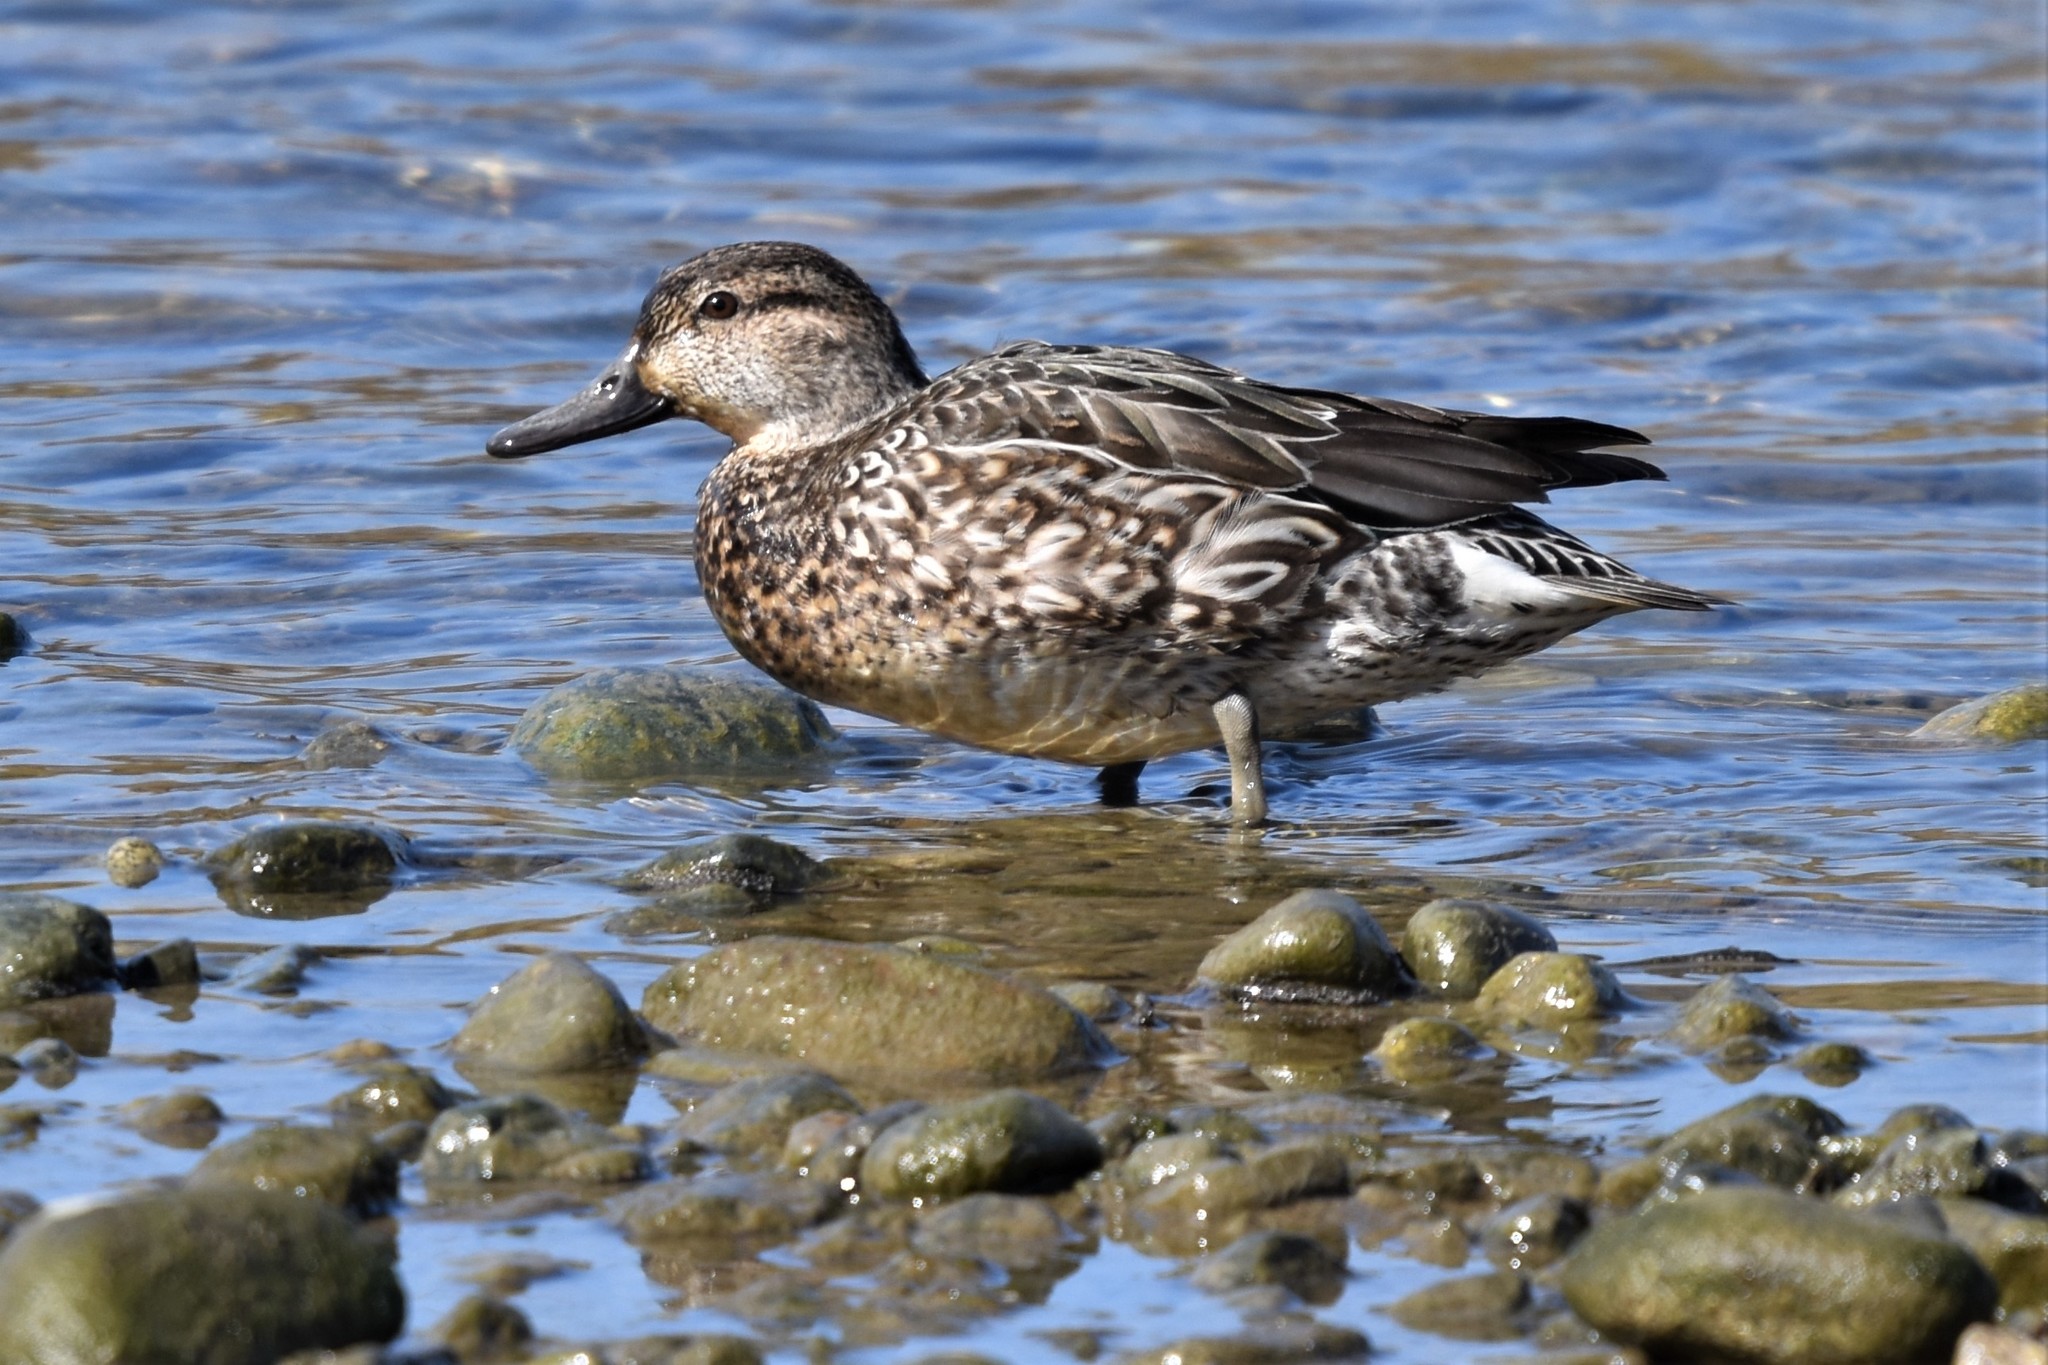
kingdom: Animalia
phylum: Chordata
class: Aves
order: Anseriformes
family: Anatidae
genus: Anas
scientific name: Anas crecca
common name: Eurasian teal
